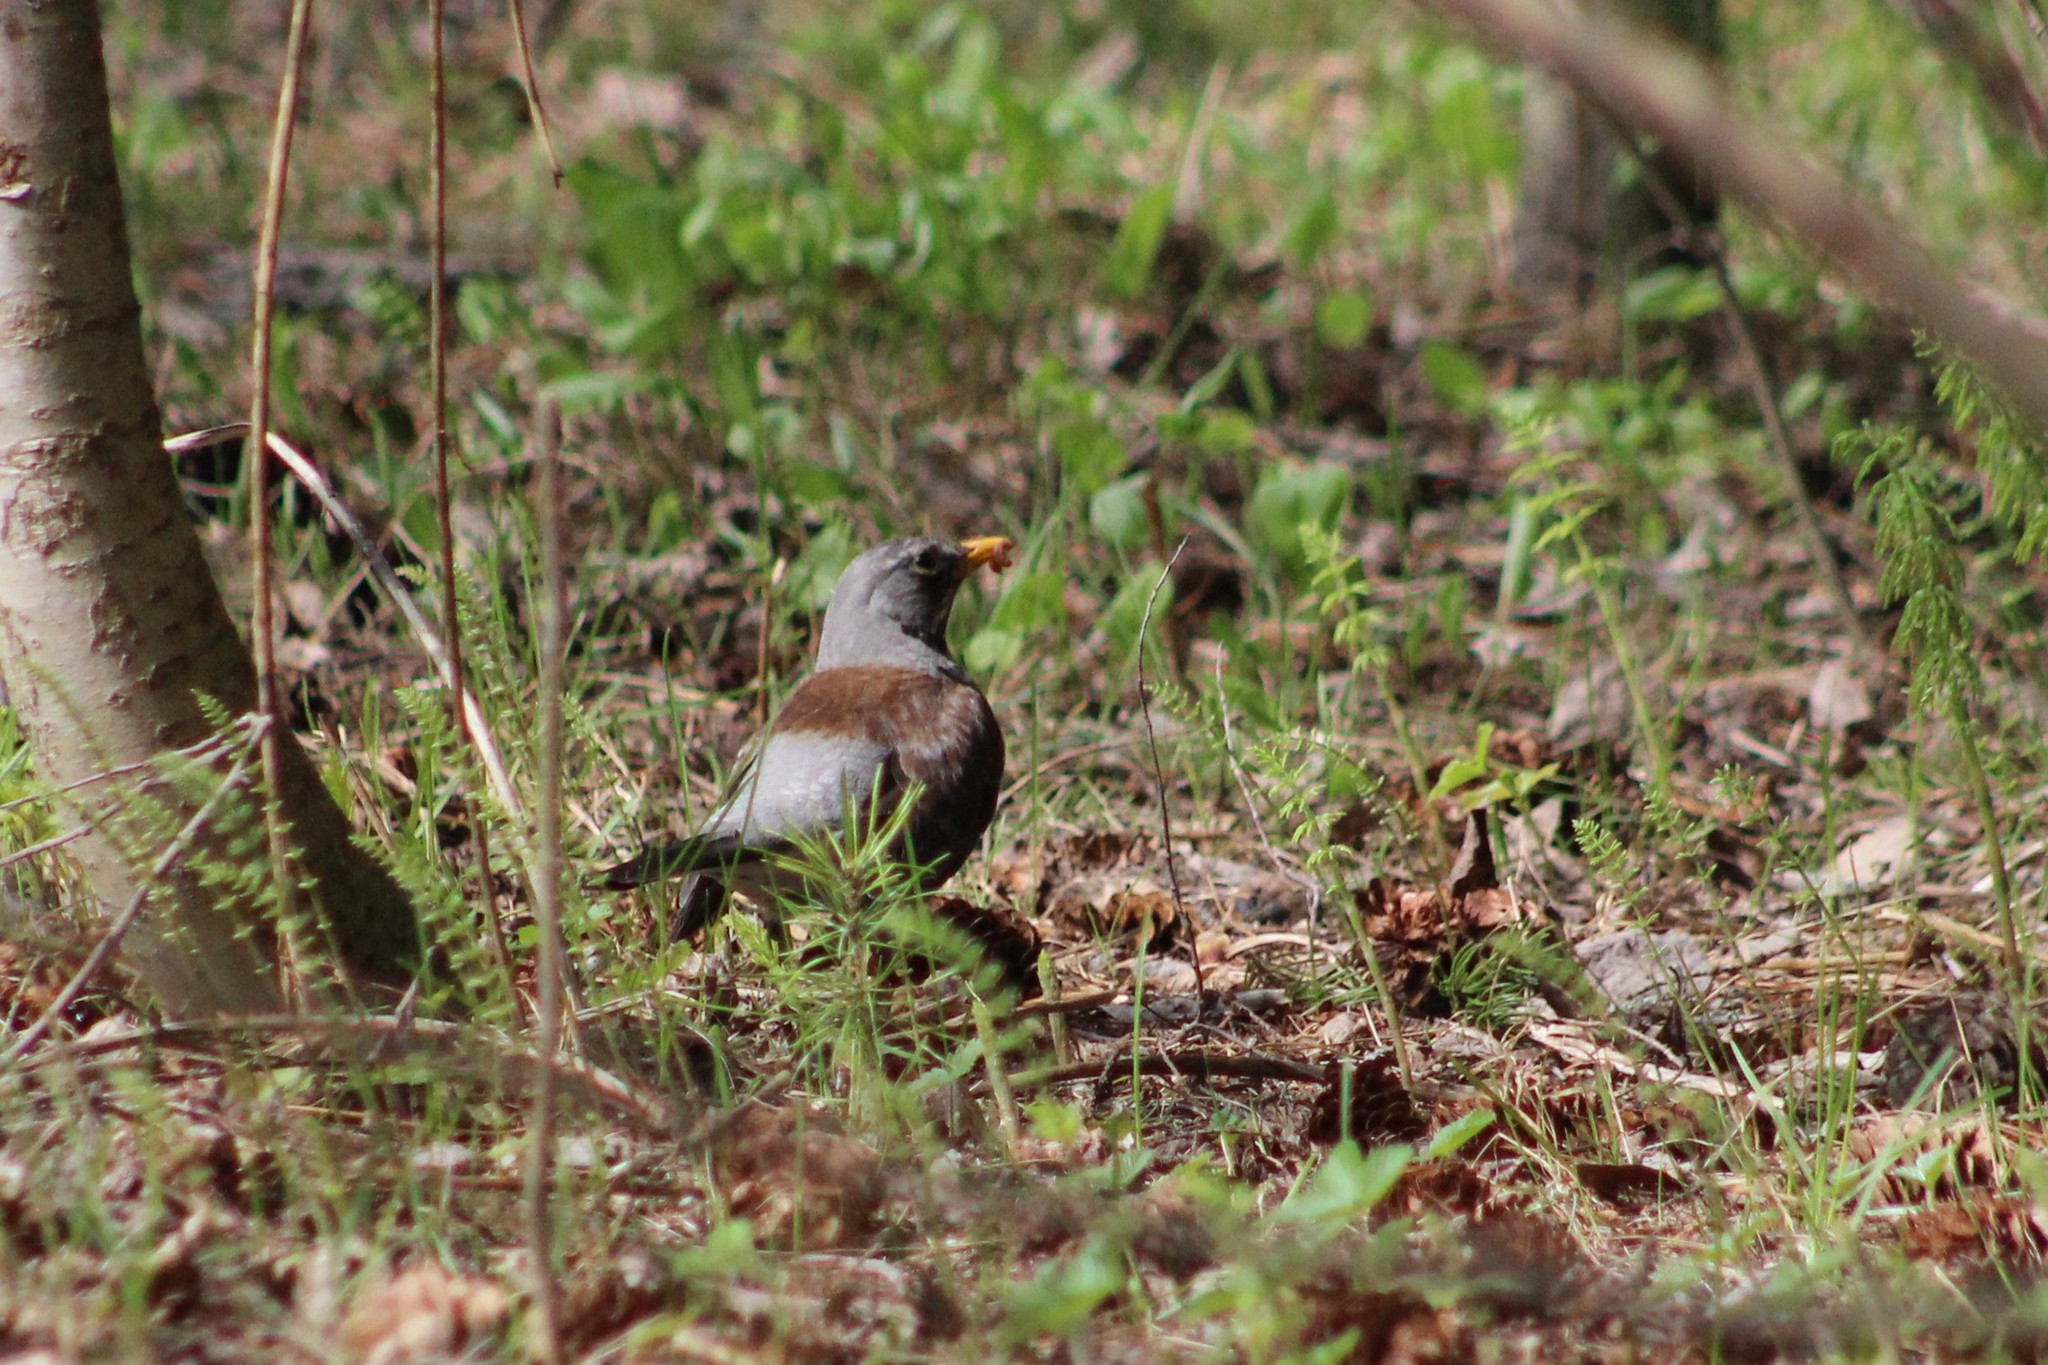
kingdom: Animalia
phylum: Chordata
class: Aves
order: Passeriformes
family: Turdidae
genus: Turdus
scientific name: Turdus pilaris
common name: Fieldfare
